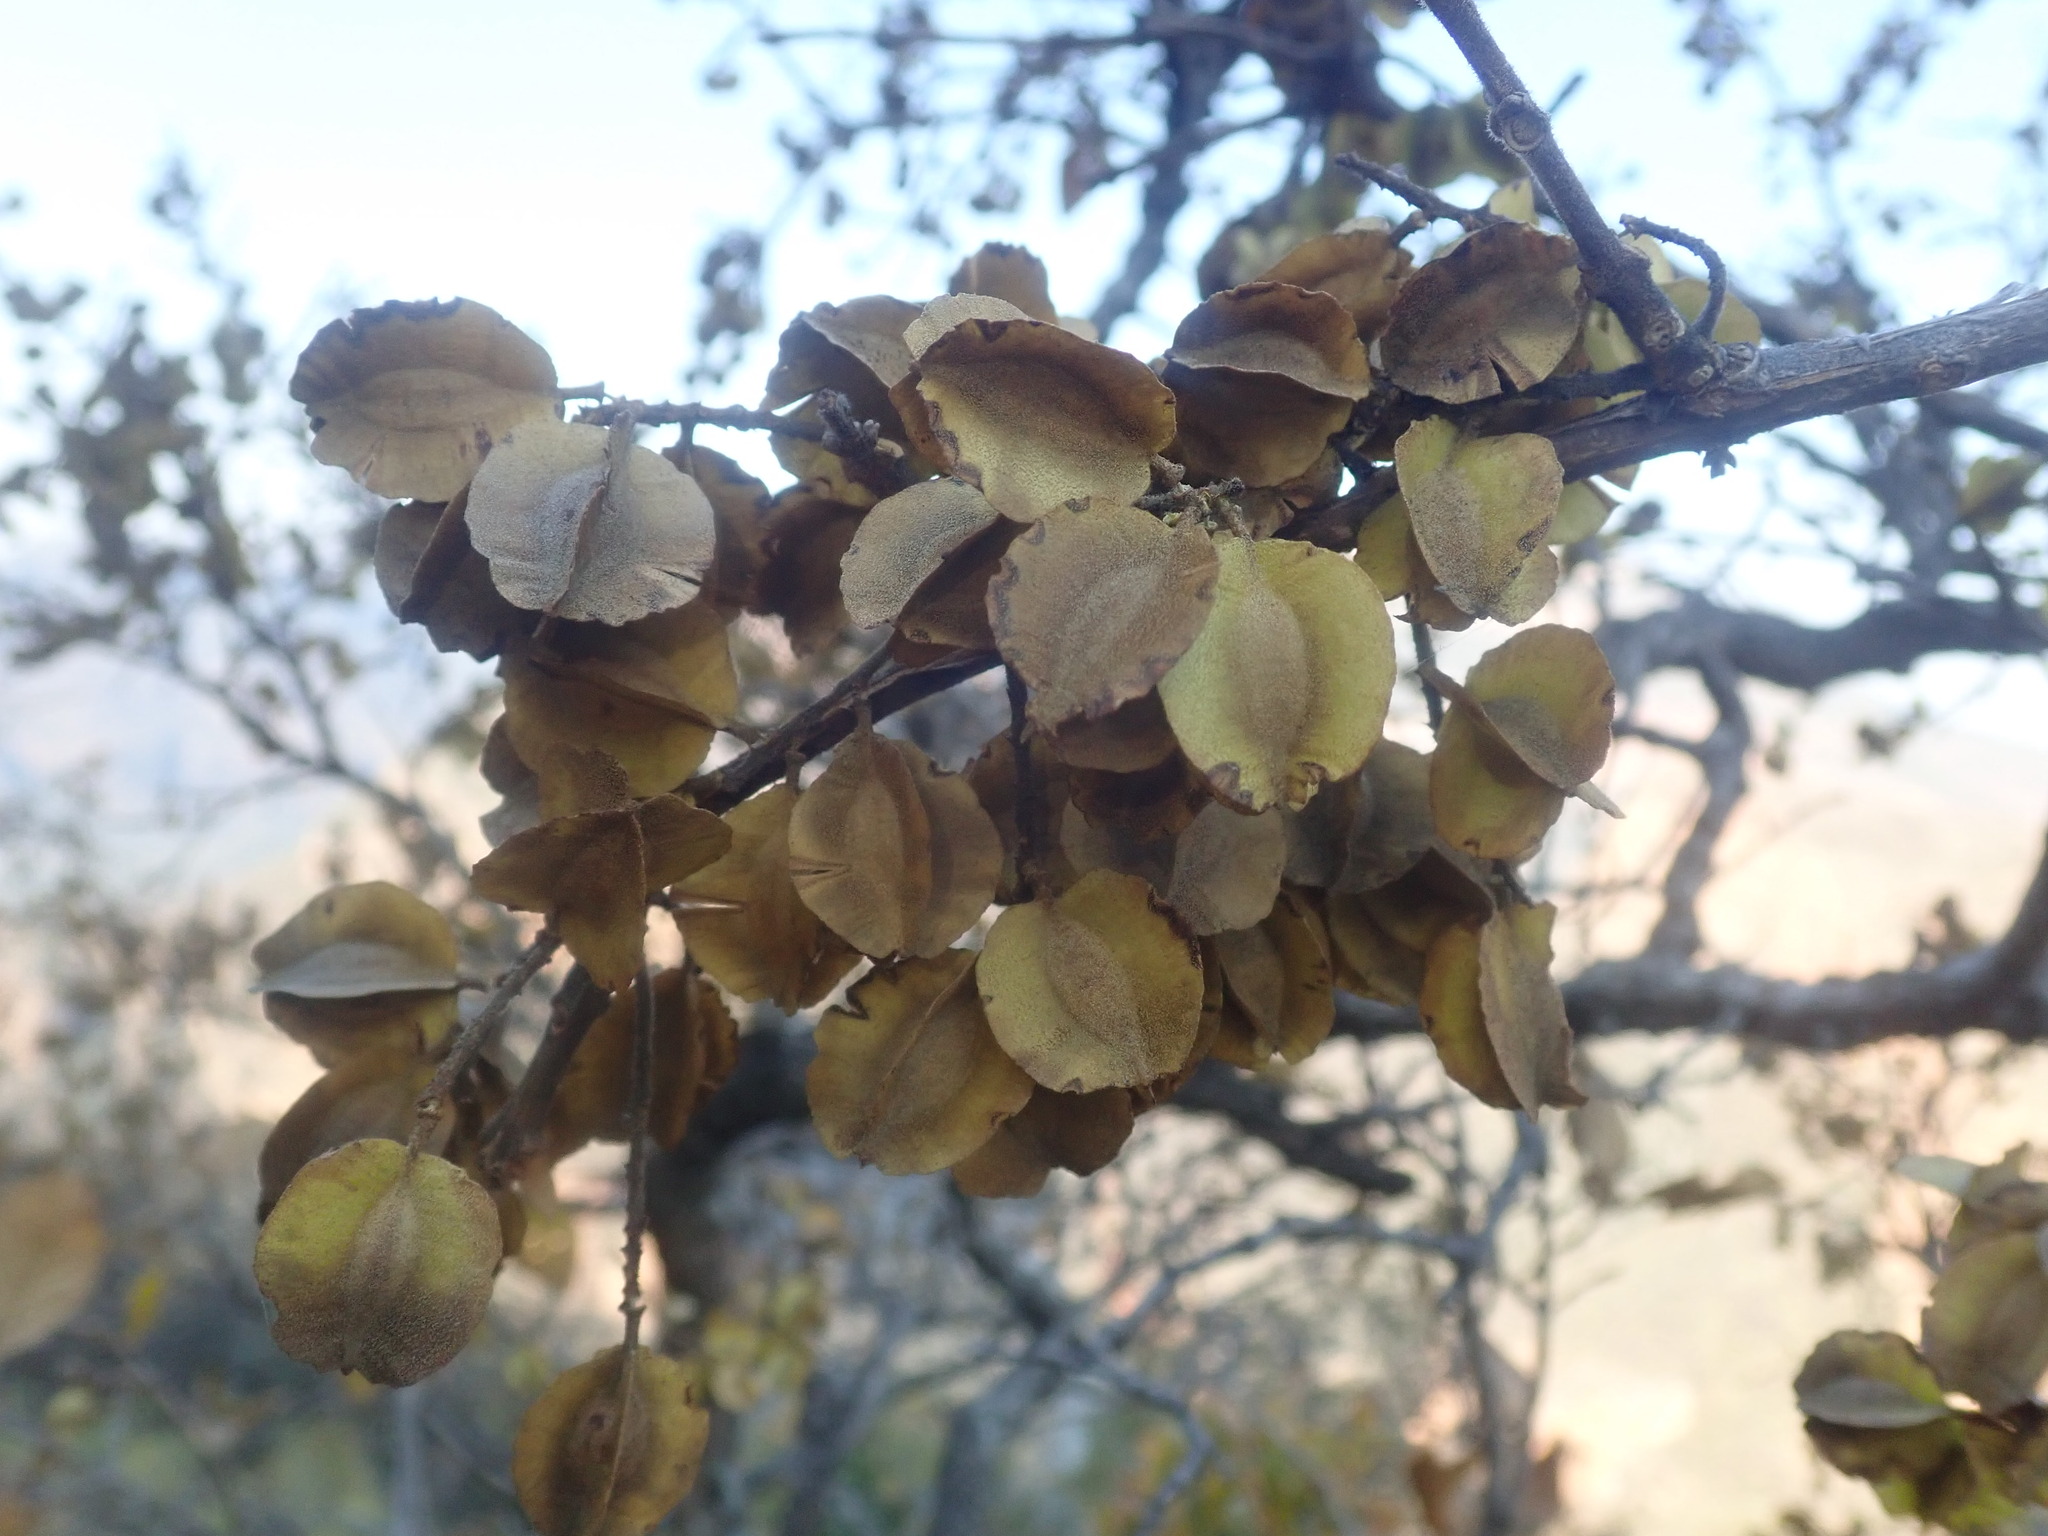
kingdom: Plantae
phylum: Tracheophyta
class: Magnoliopsida
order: Myrtales
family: Combretaceae
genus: Combretum
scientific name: Combretum molle
